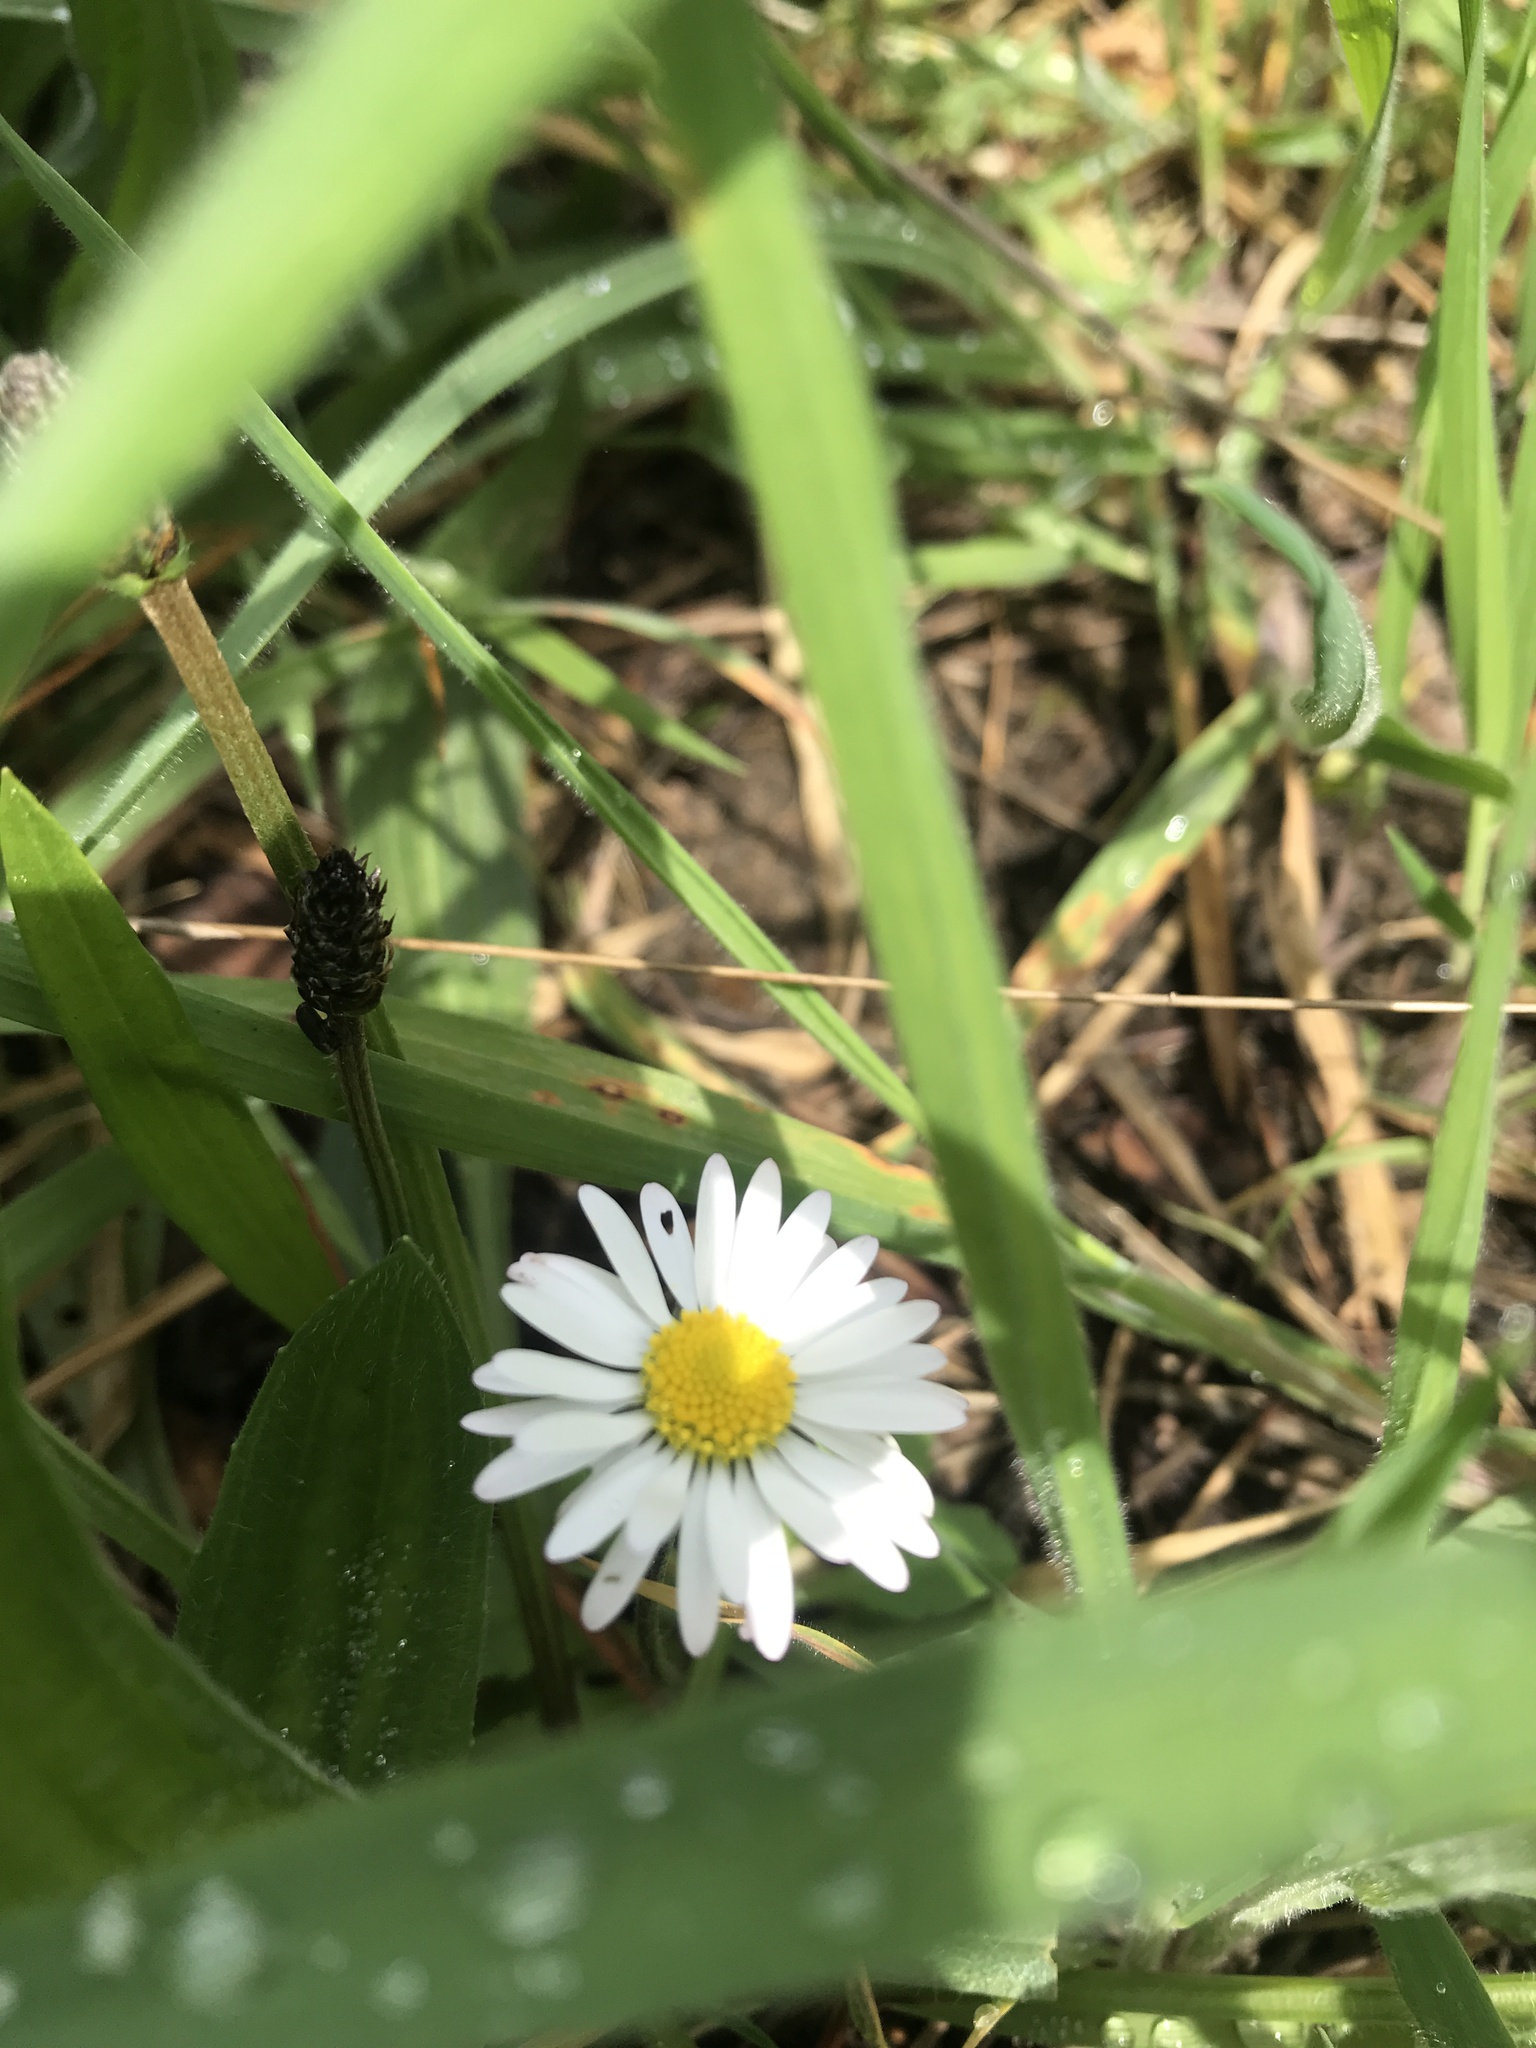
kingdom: Plantae
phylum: Tracheophyta
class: Magnoliopsida
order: Asterales
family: Asteraceae
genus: Bellis
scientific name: Bellis perennis
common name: Lawndaisy
